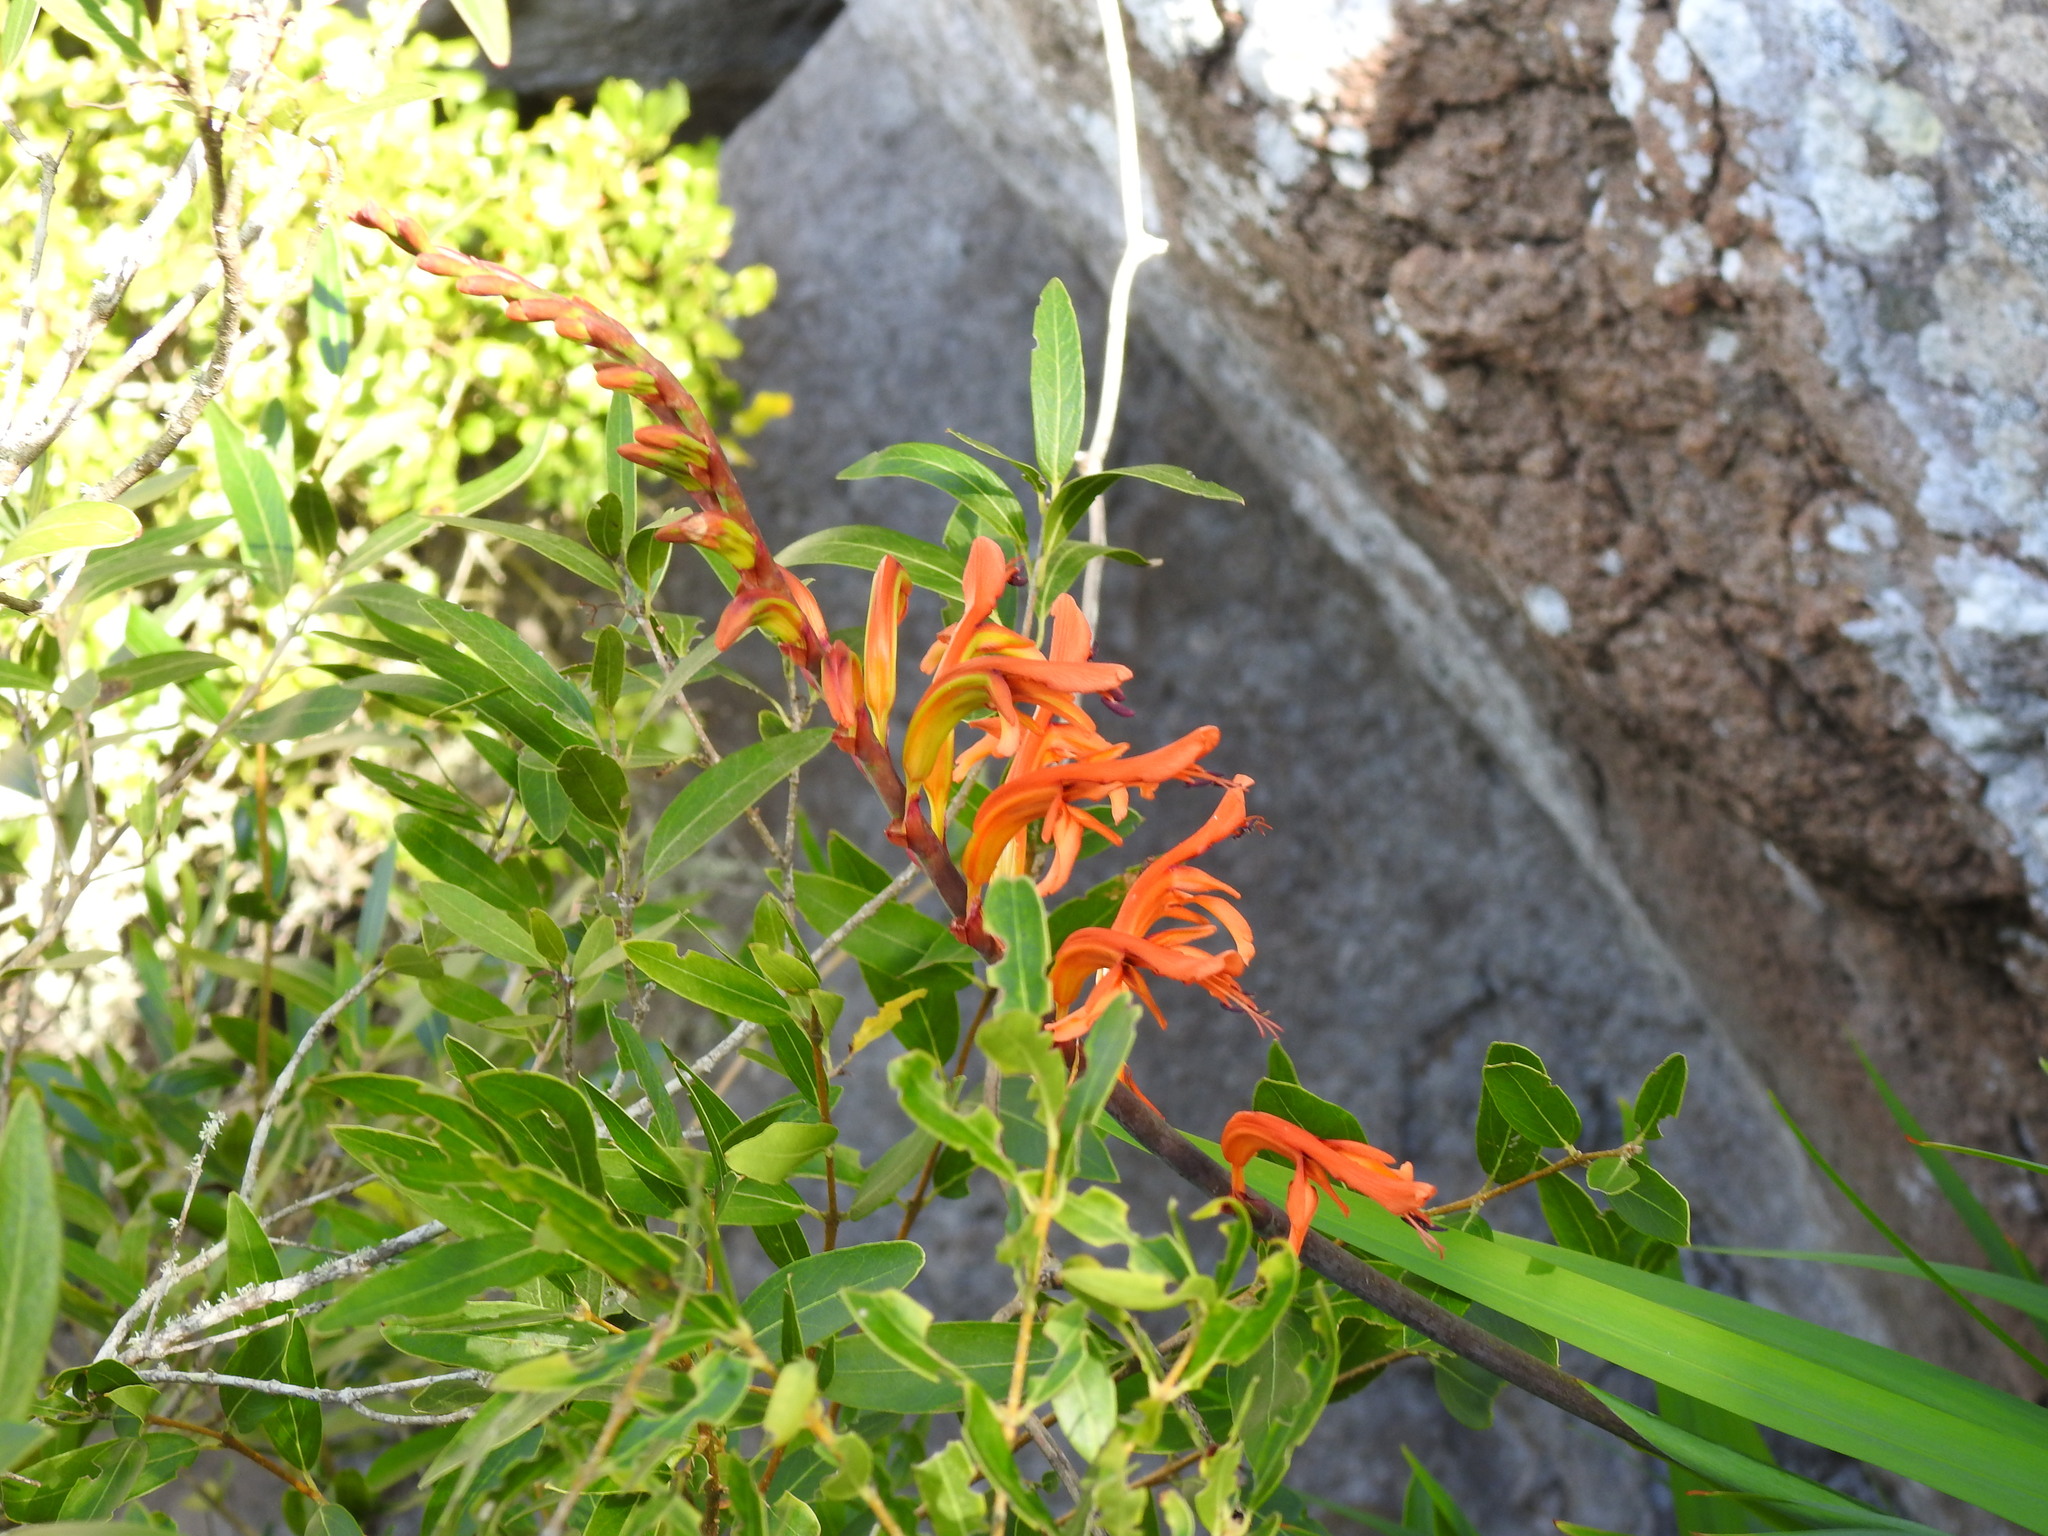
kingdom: Plantae
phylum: Tracheophyta
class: Liliopsida
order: Asparagales
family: Iridaceae
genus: Chasmanthe
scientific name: Chasmanthe floribunda
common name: African cornflag
